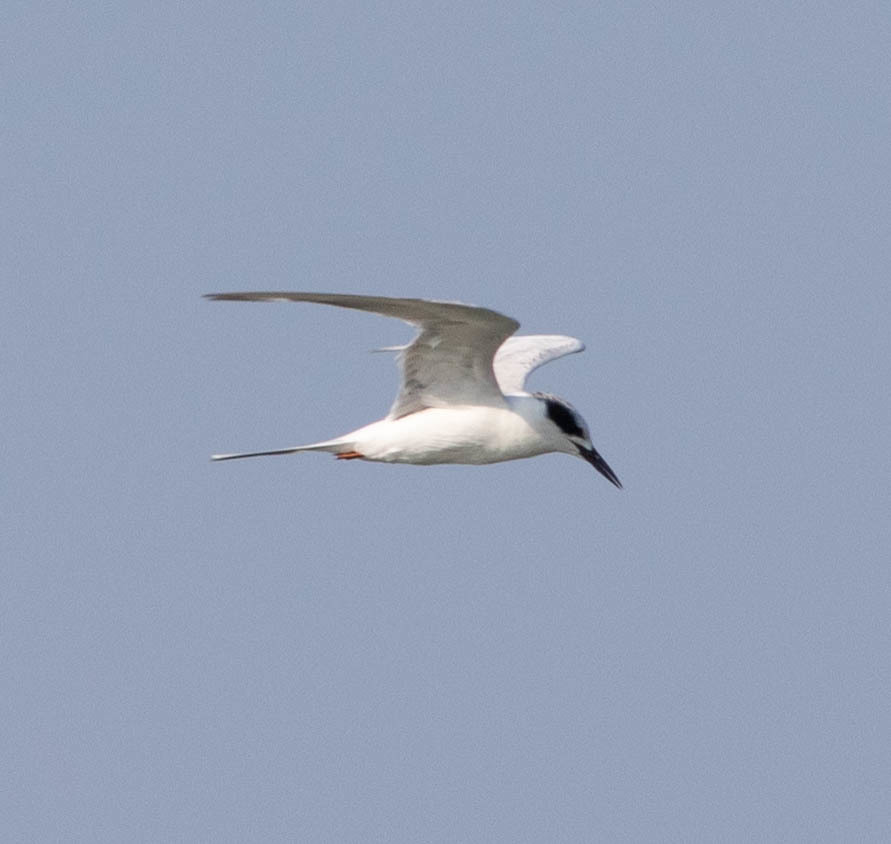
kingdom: Animalia
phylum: Chordata
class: Aves
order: Charadriiformes
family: Laridae
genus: Sterna
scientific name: Sterna forsteri
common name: Forster's tern
